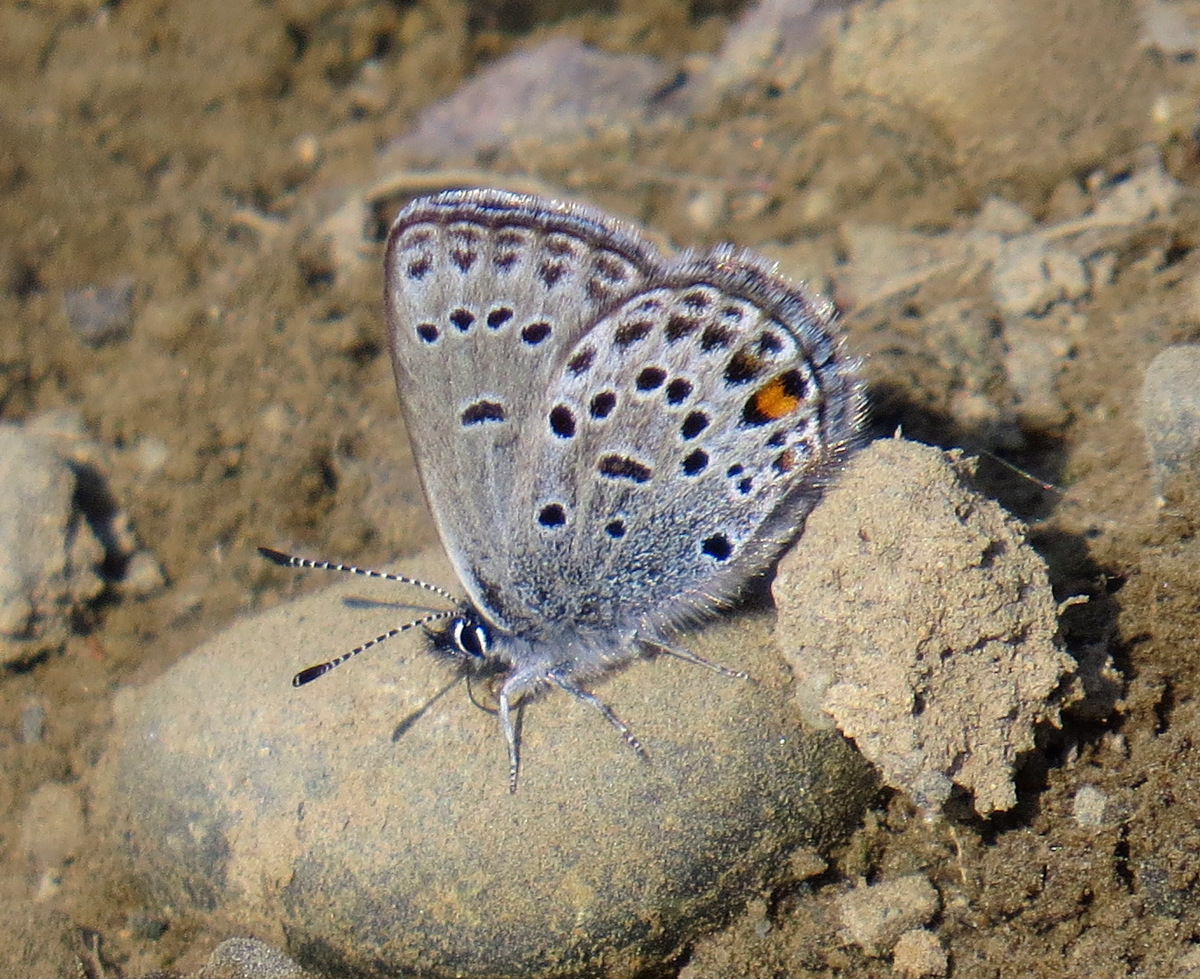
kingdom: Animalia
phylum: Arthropoda
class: Insecta
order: Lepidoptera
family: Lycaenidae
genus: Vacciniina
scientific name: Vacciniina optilete
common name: Cranberry blue
